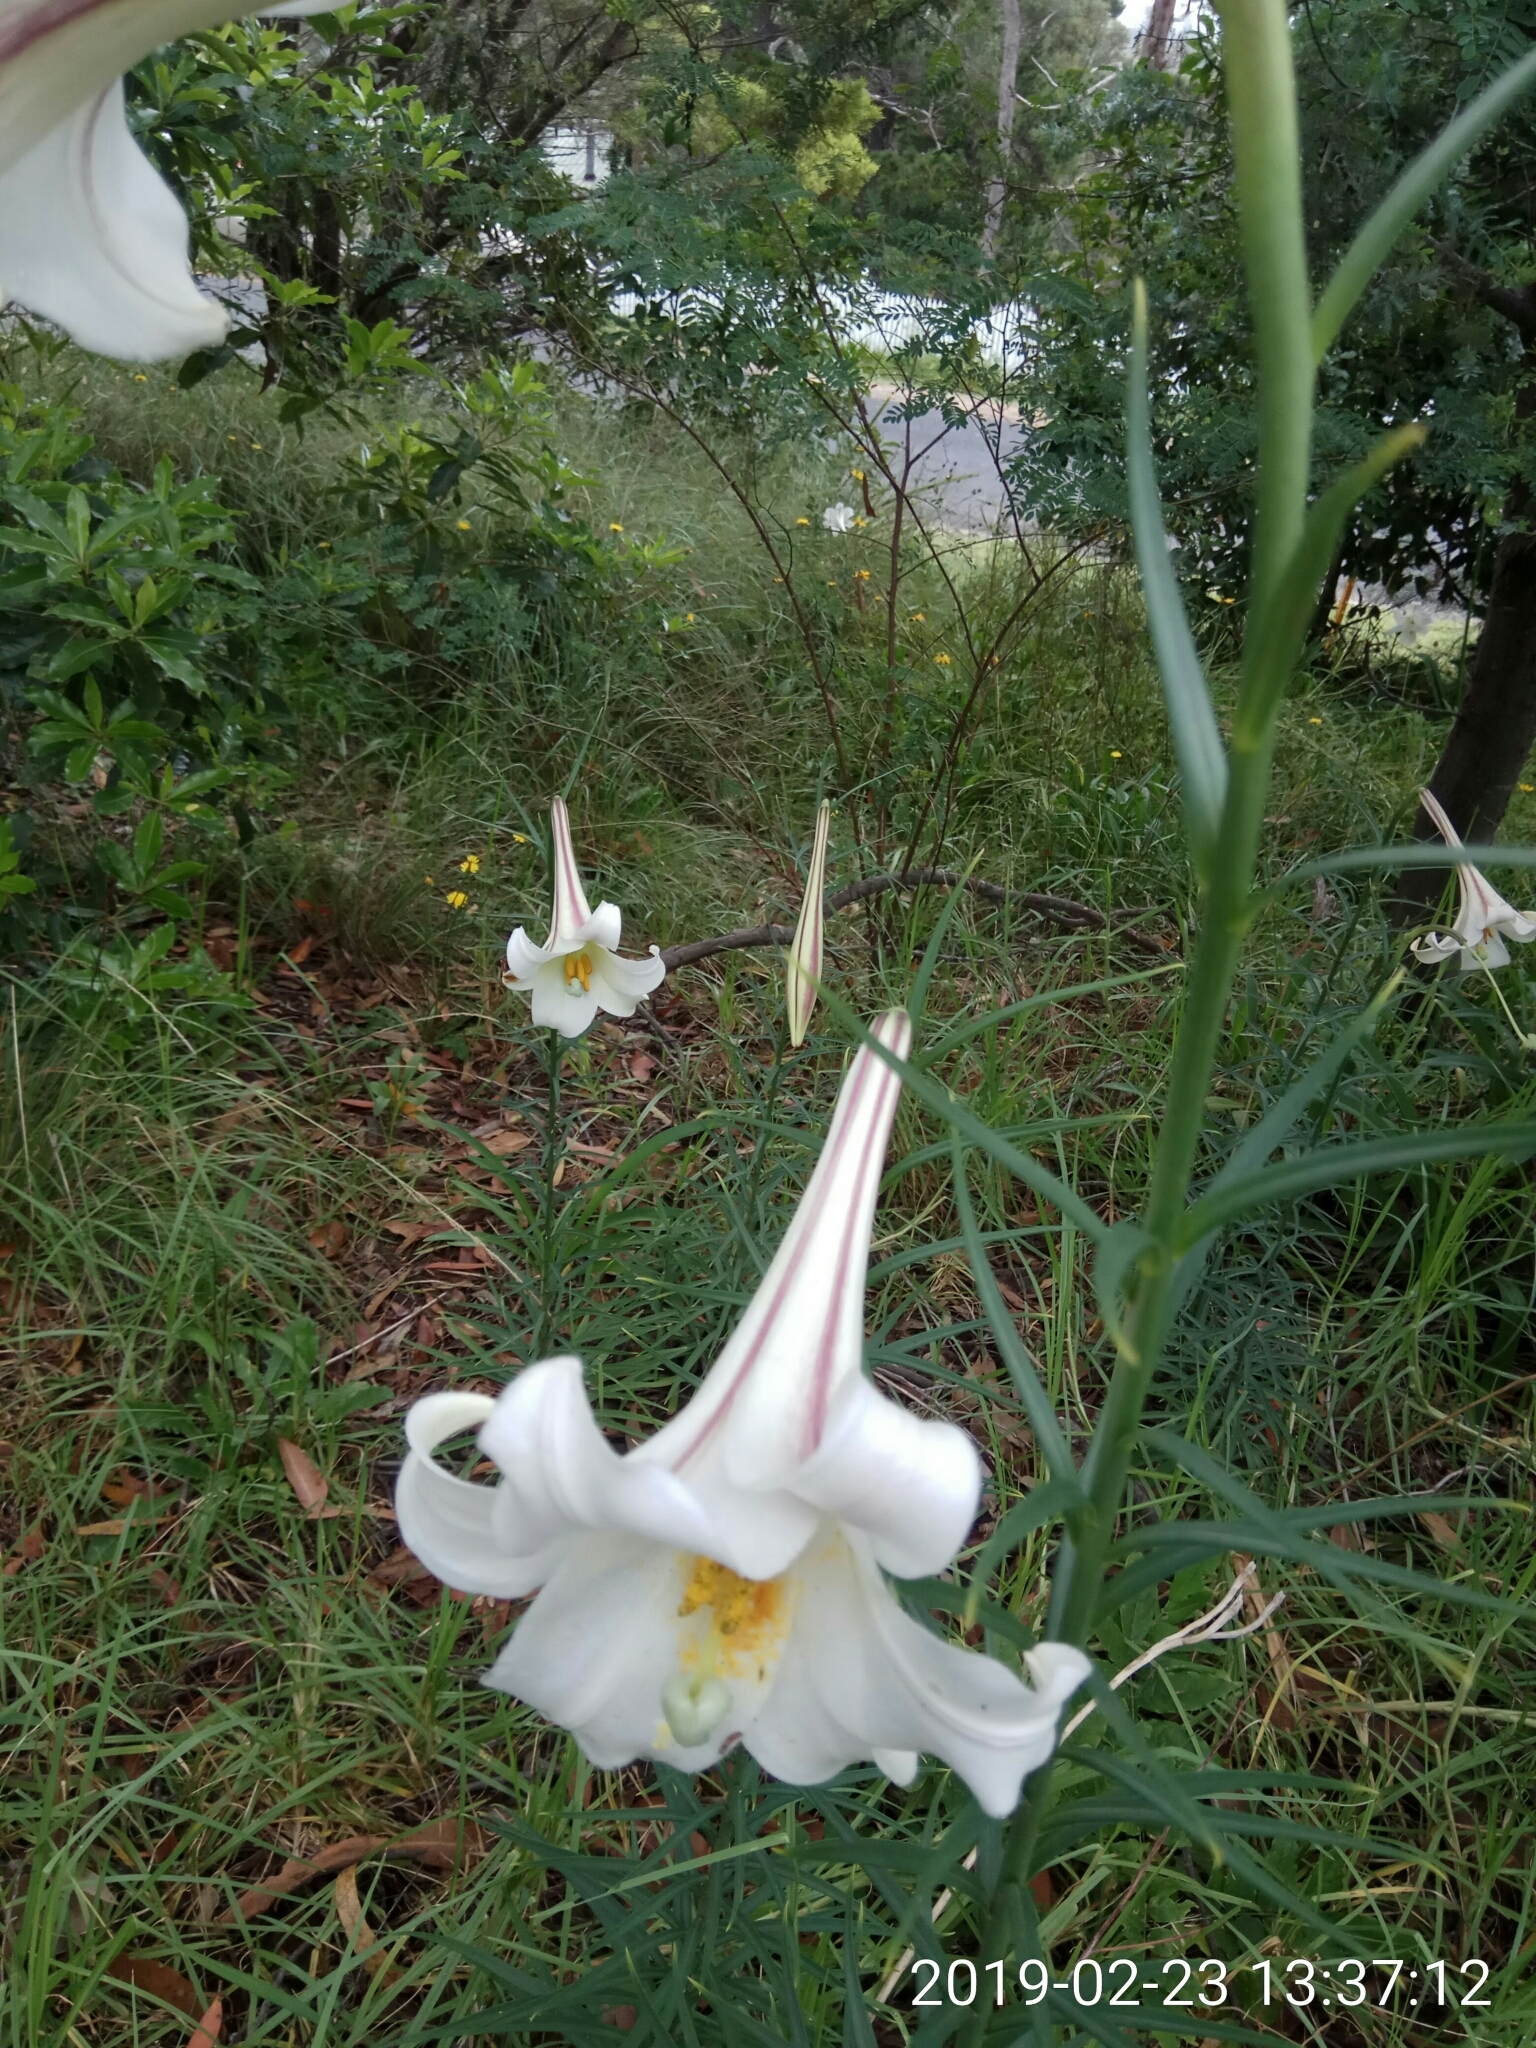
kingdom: Plantae
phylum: Tracheophyta
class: Liliopsida
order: Liliales
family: Liliaceae
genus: Lilium
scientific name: Lilium formosanum
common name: Formosa lily
